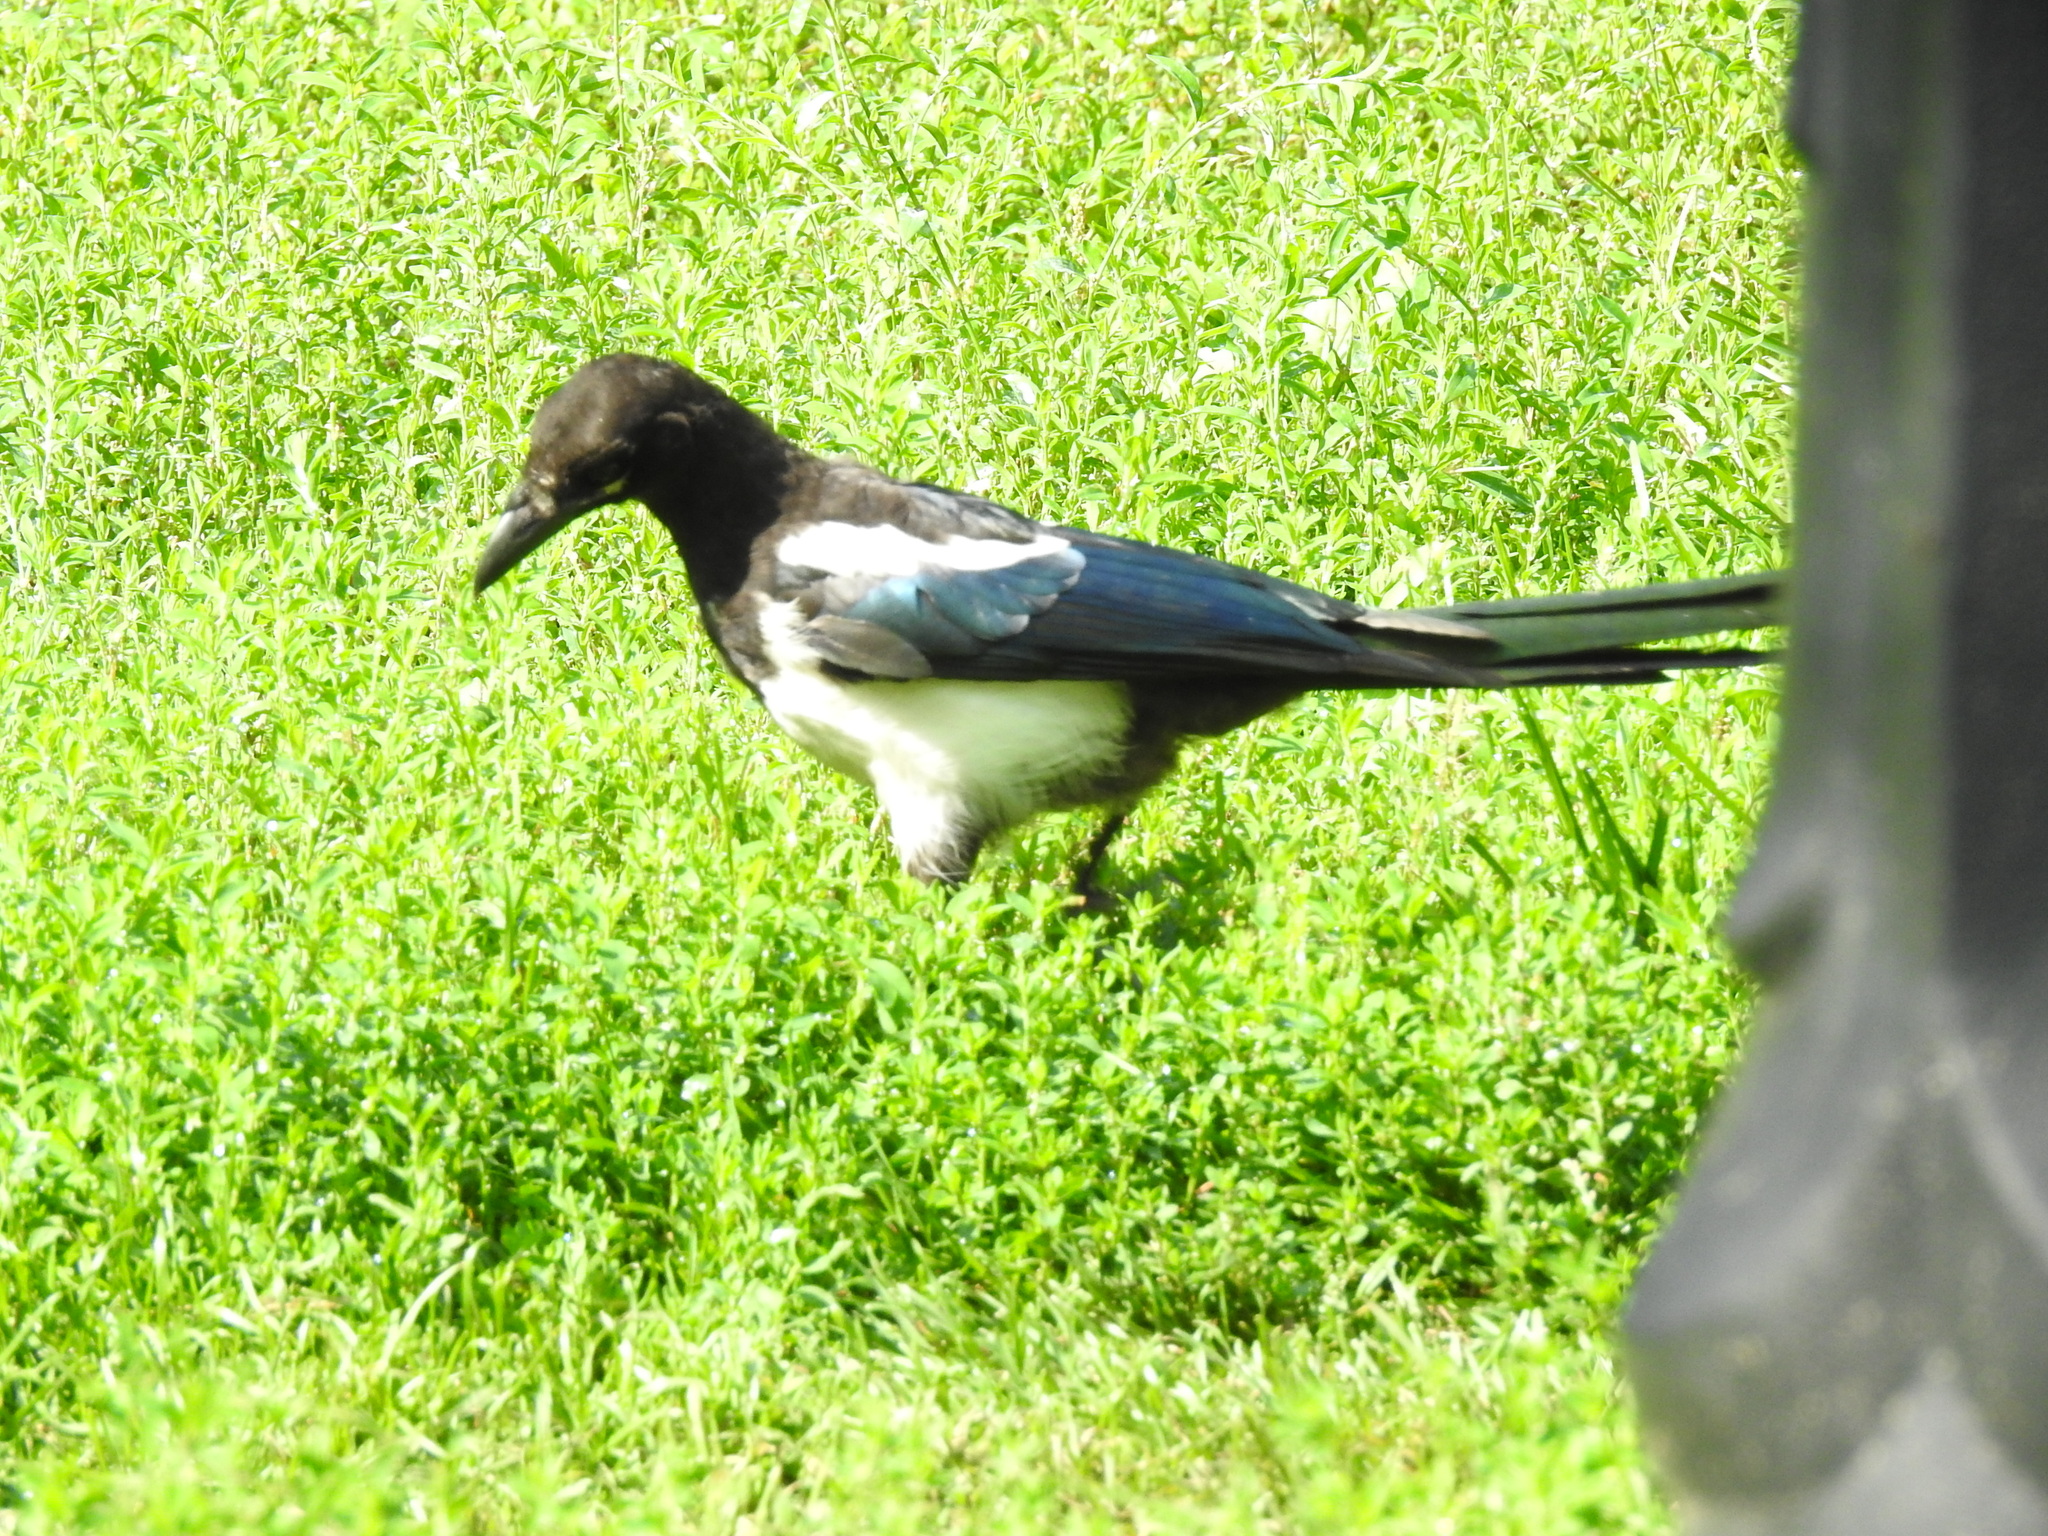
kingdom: Animalia
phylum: Chordata
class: Aves
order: Passeriformes
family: Corvidae
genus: Pica
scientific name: Pica pica
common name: Eurasian magpie
